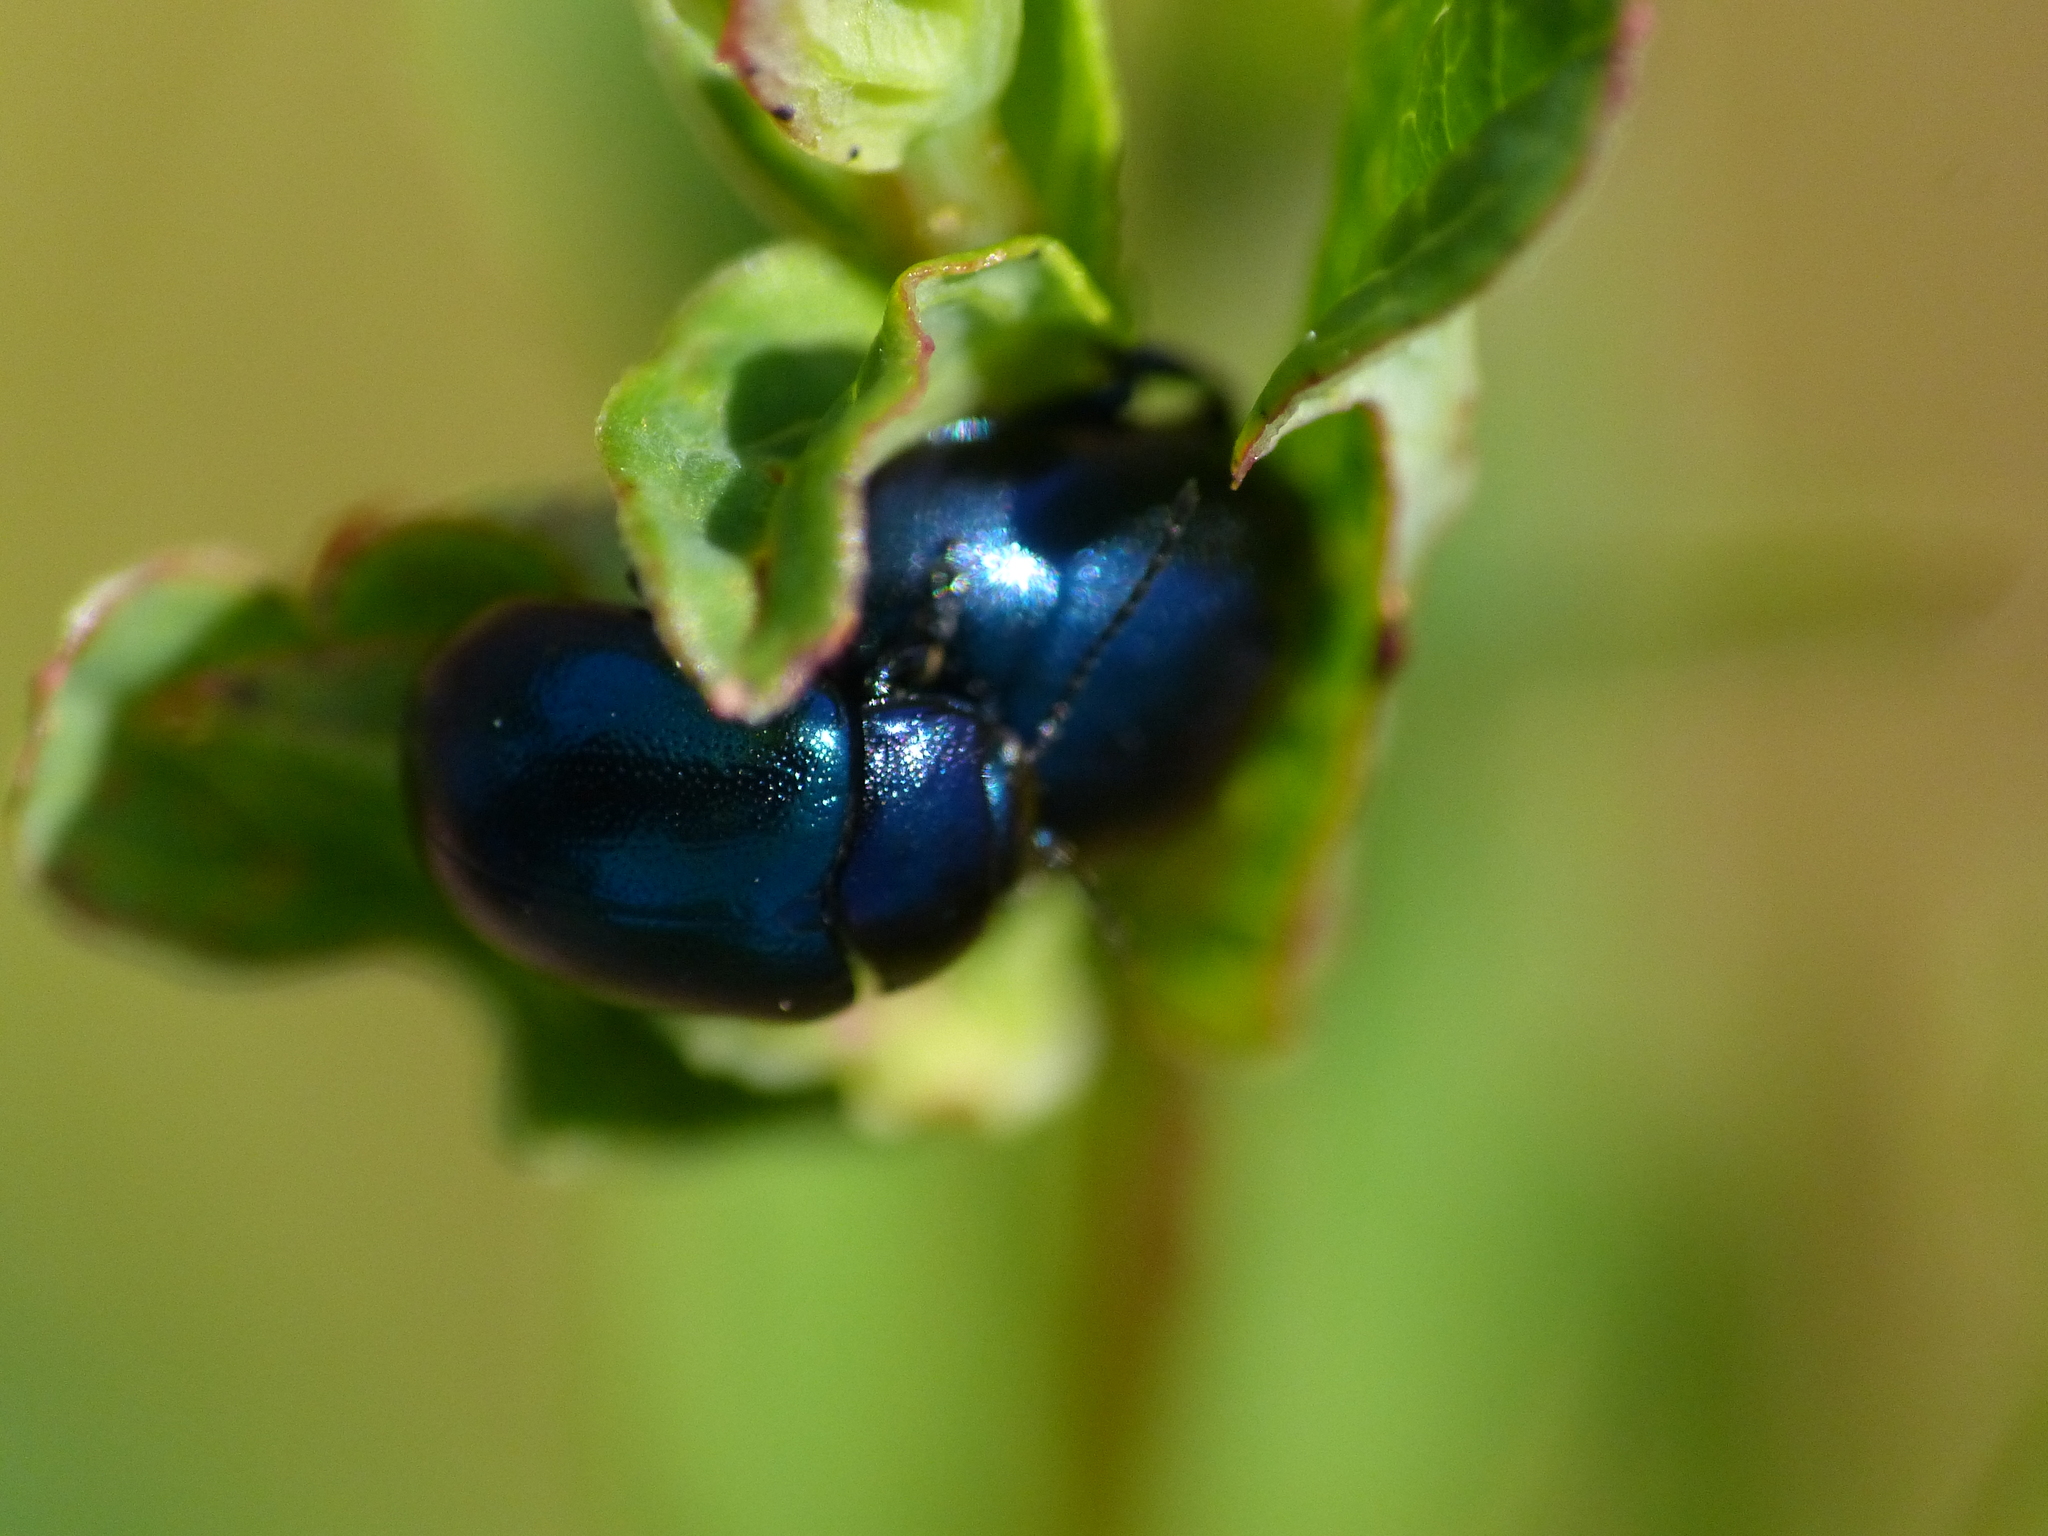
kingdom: Animalia
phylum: Arthropoda
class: Insecta
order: Coleoptera
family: Chrysomelidae
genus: Chrysolina
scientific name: Chrysolina varians
